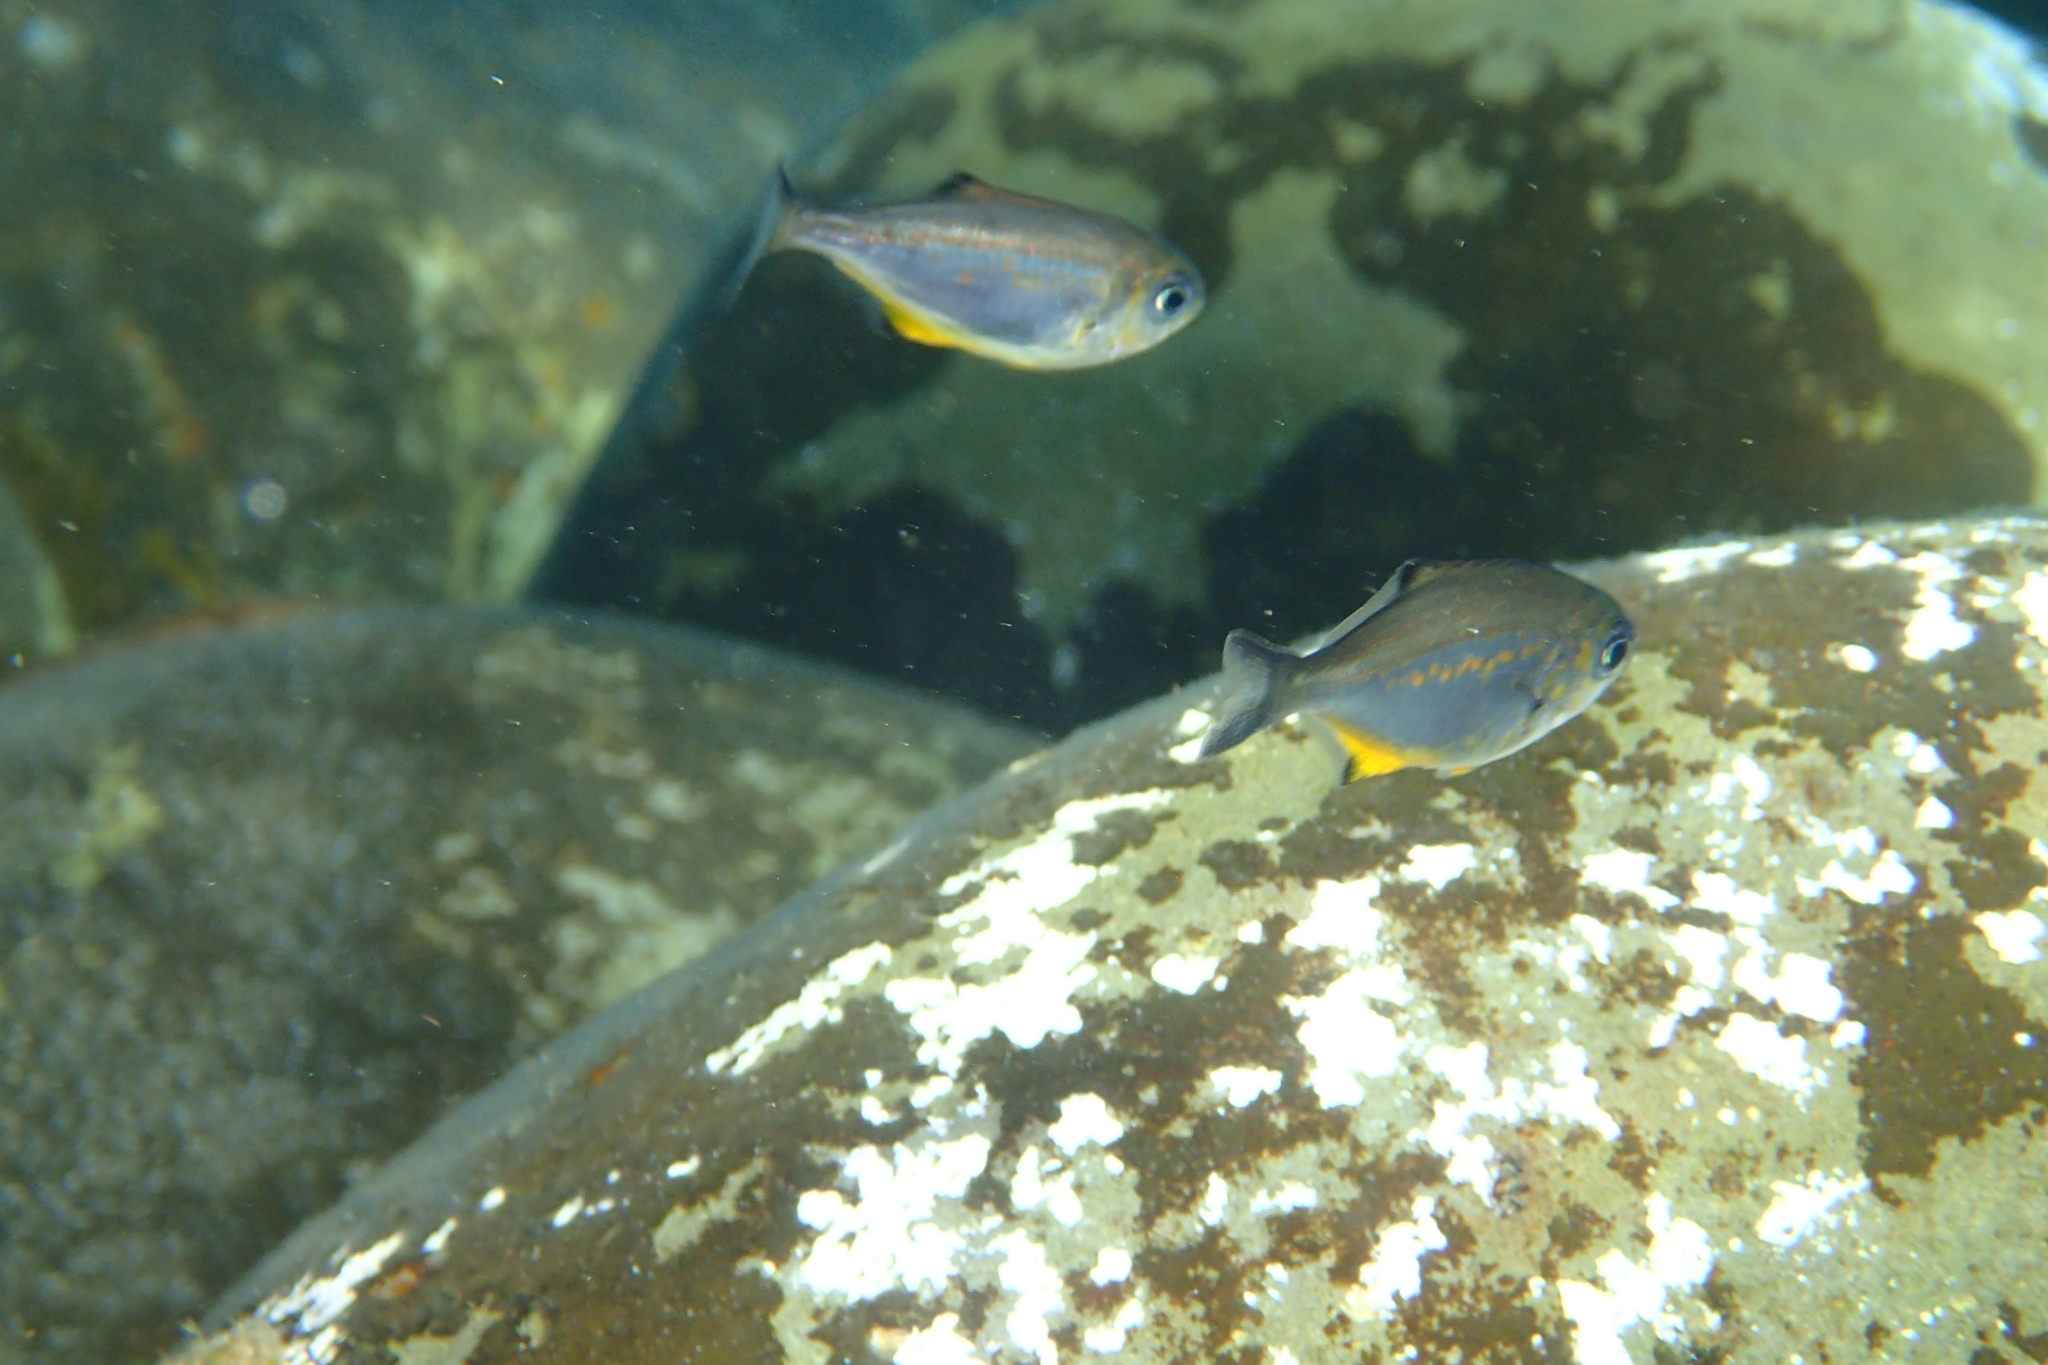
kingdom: Animalia
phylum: Chordata
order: Perciformes
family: Kyphosidae
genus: Scorpis
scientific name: Scorpis violacea
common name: Blue maomao
